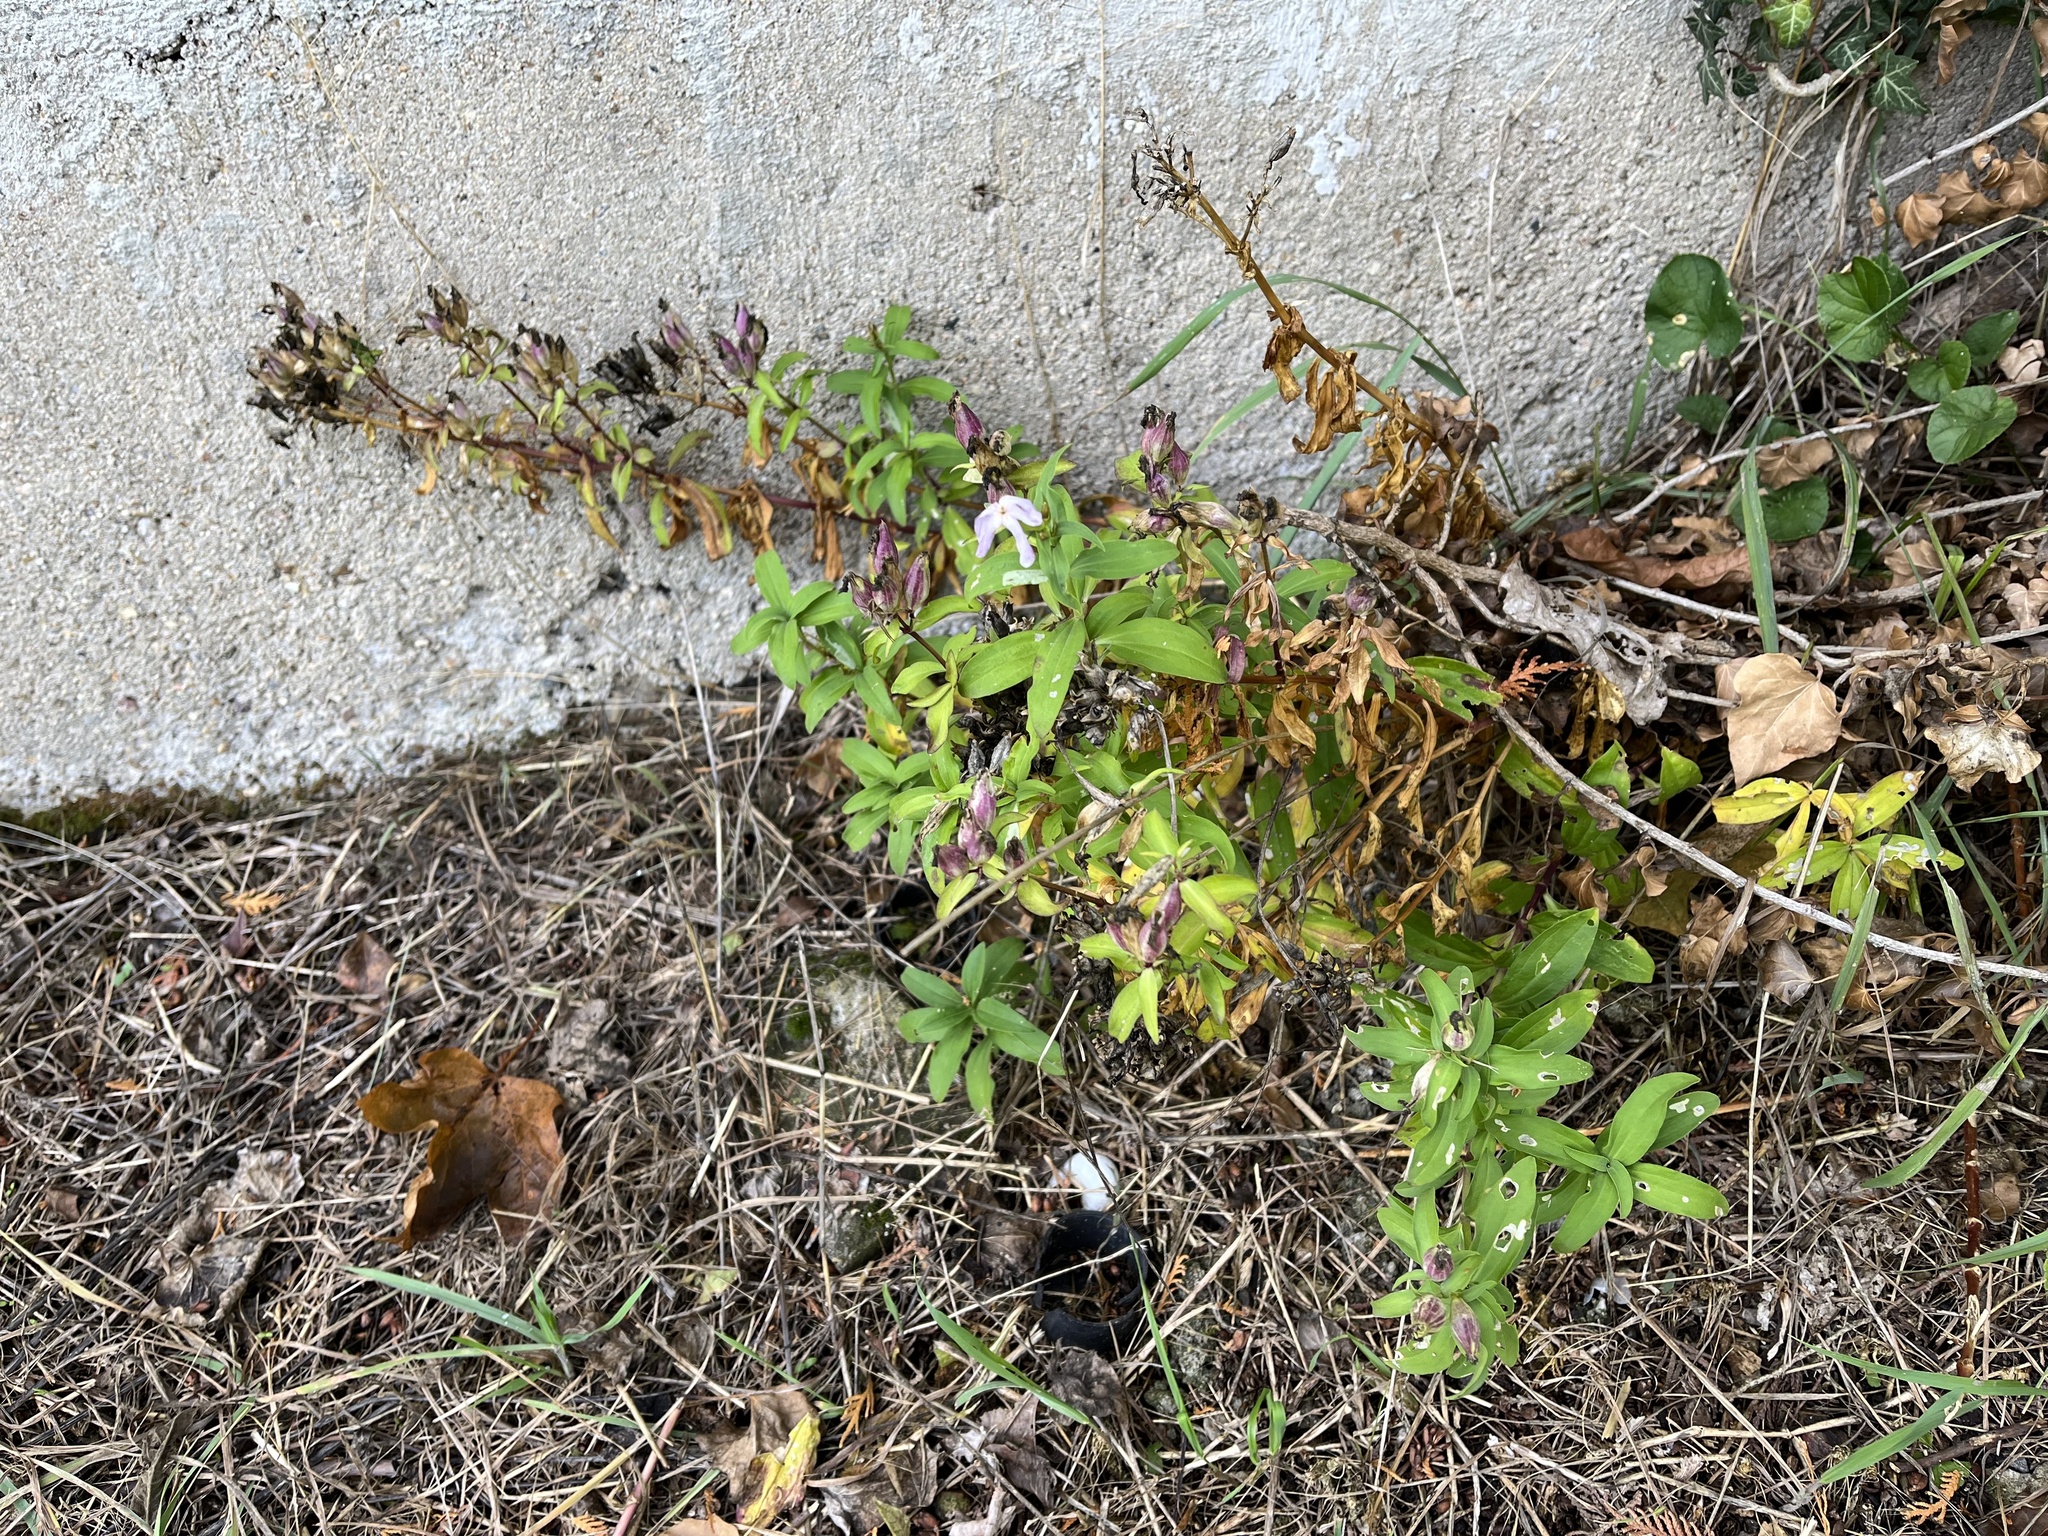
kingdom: Plantae
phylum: Tracheophyta
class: Magnoliopsida
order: Caryophyllales
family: Caryophyllaceae
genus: Saponaria
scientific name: Saponaria officinalis
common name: Soapwort
